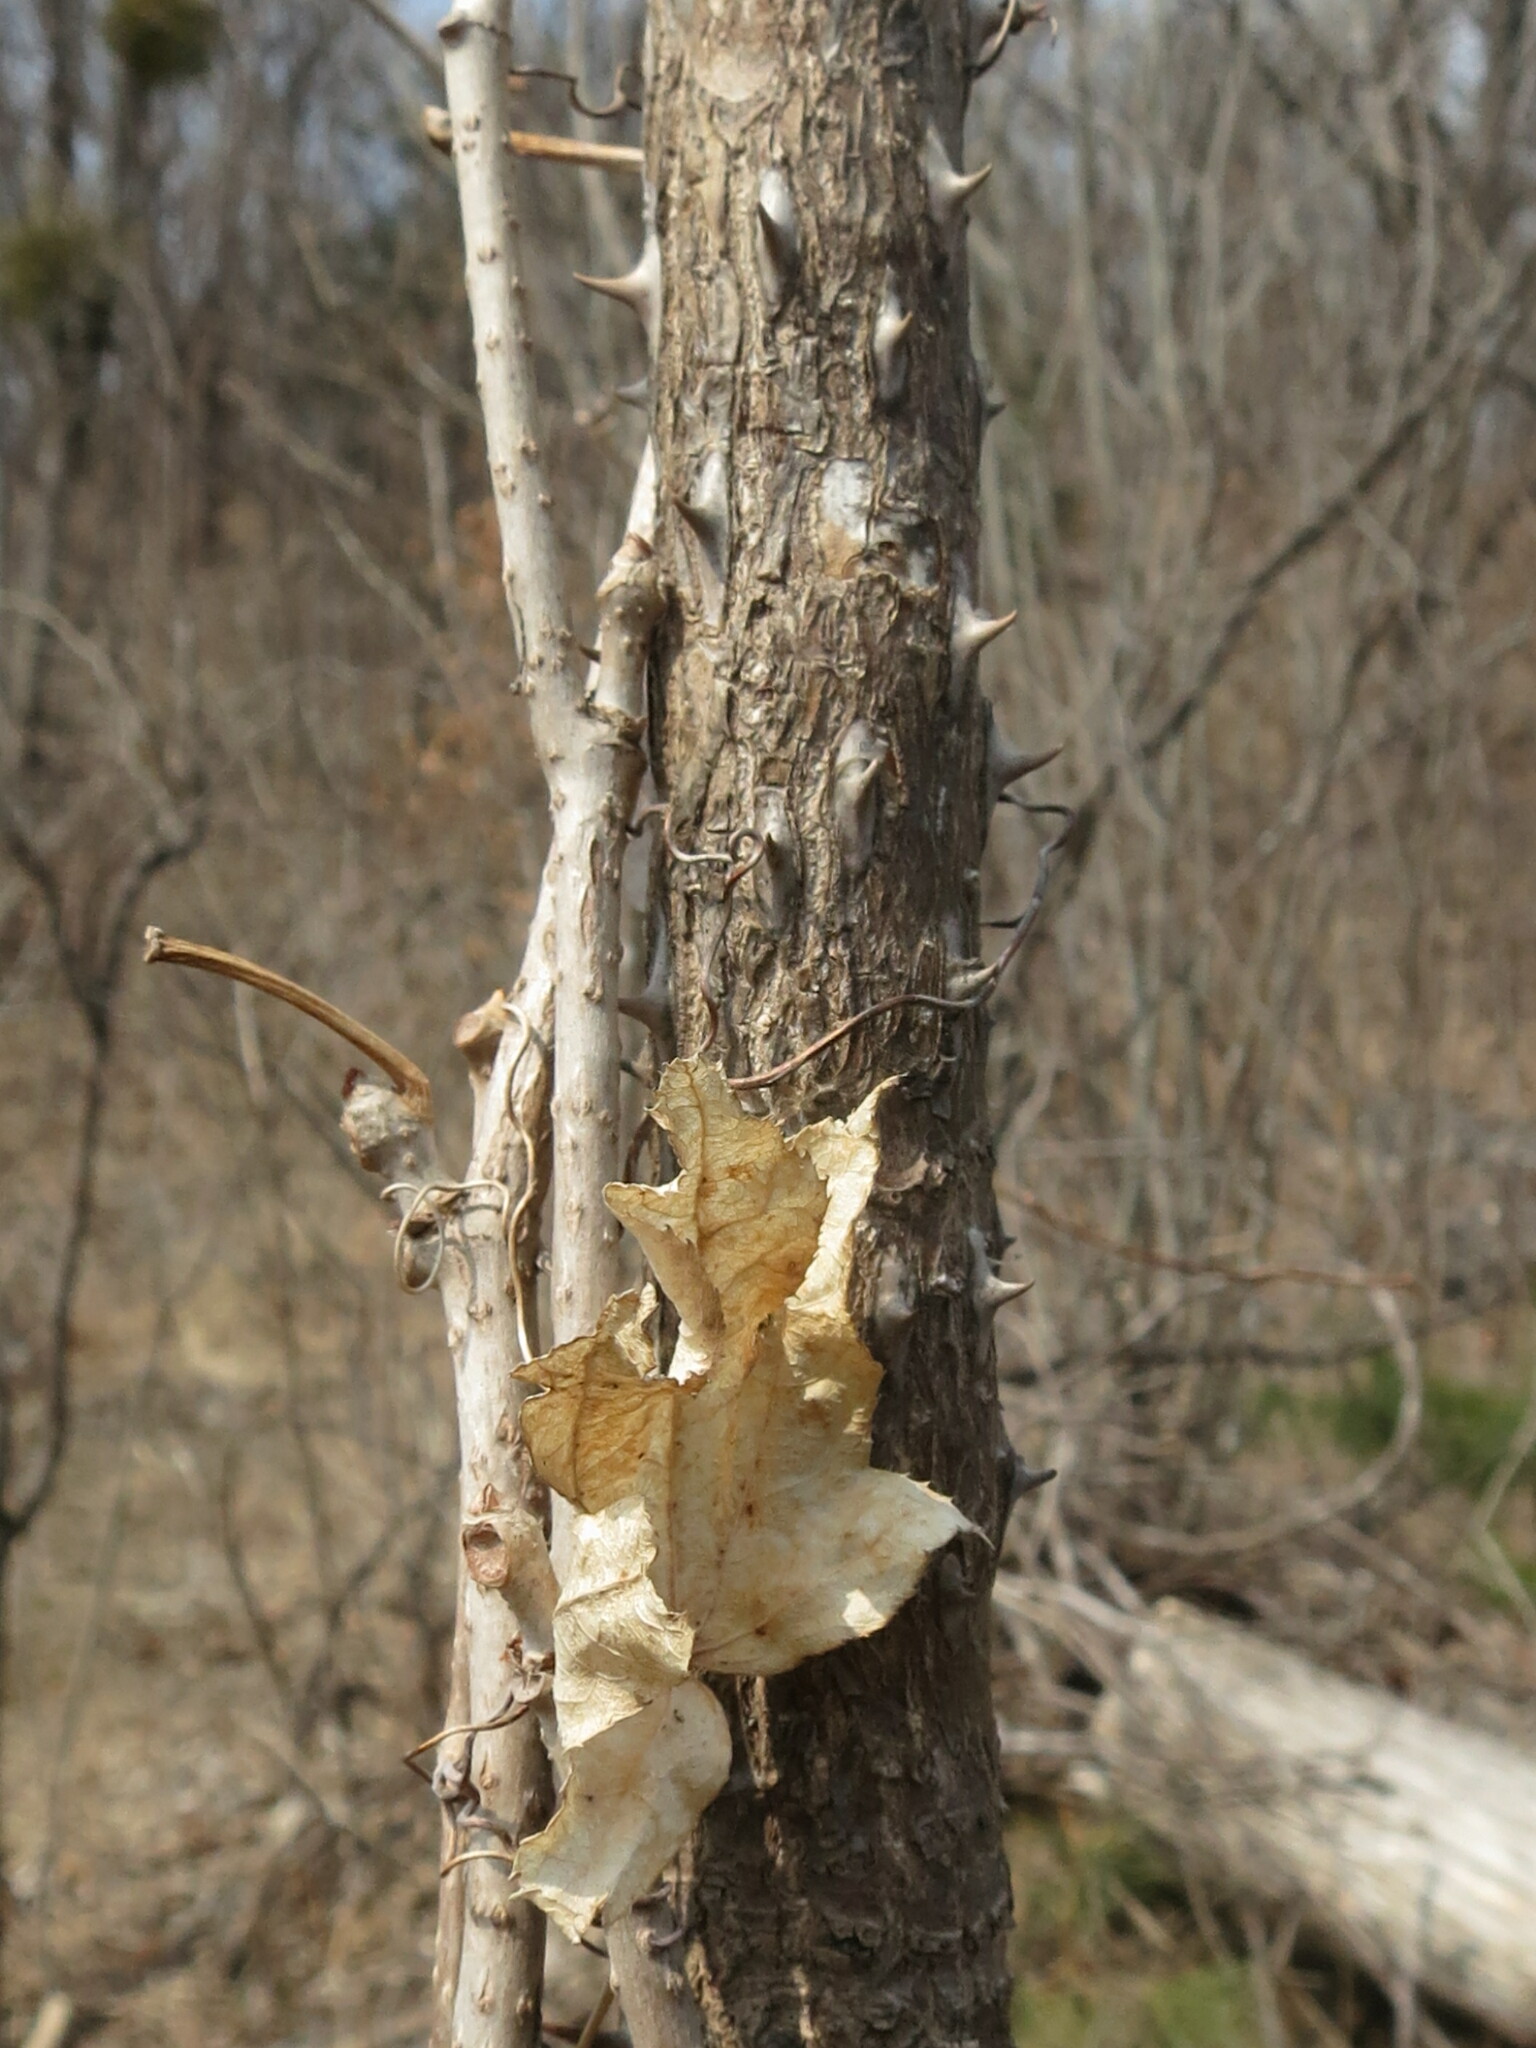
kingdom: Plantae
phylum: Tracheophyta
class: Magnoliopsida
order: Apiales
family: Araliaceae
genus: Kalopanax
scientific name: Kalopanax septemlobus
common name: Castor aralia
